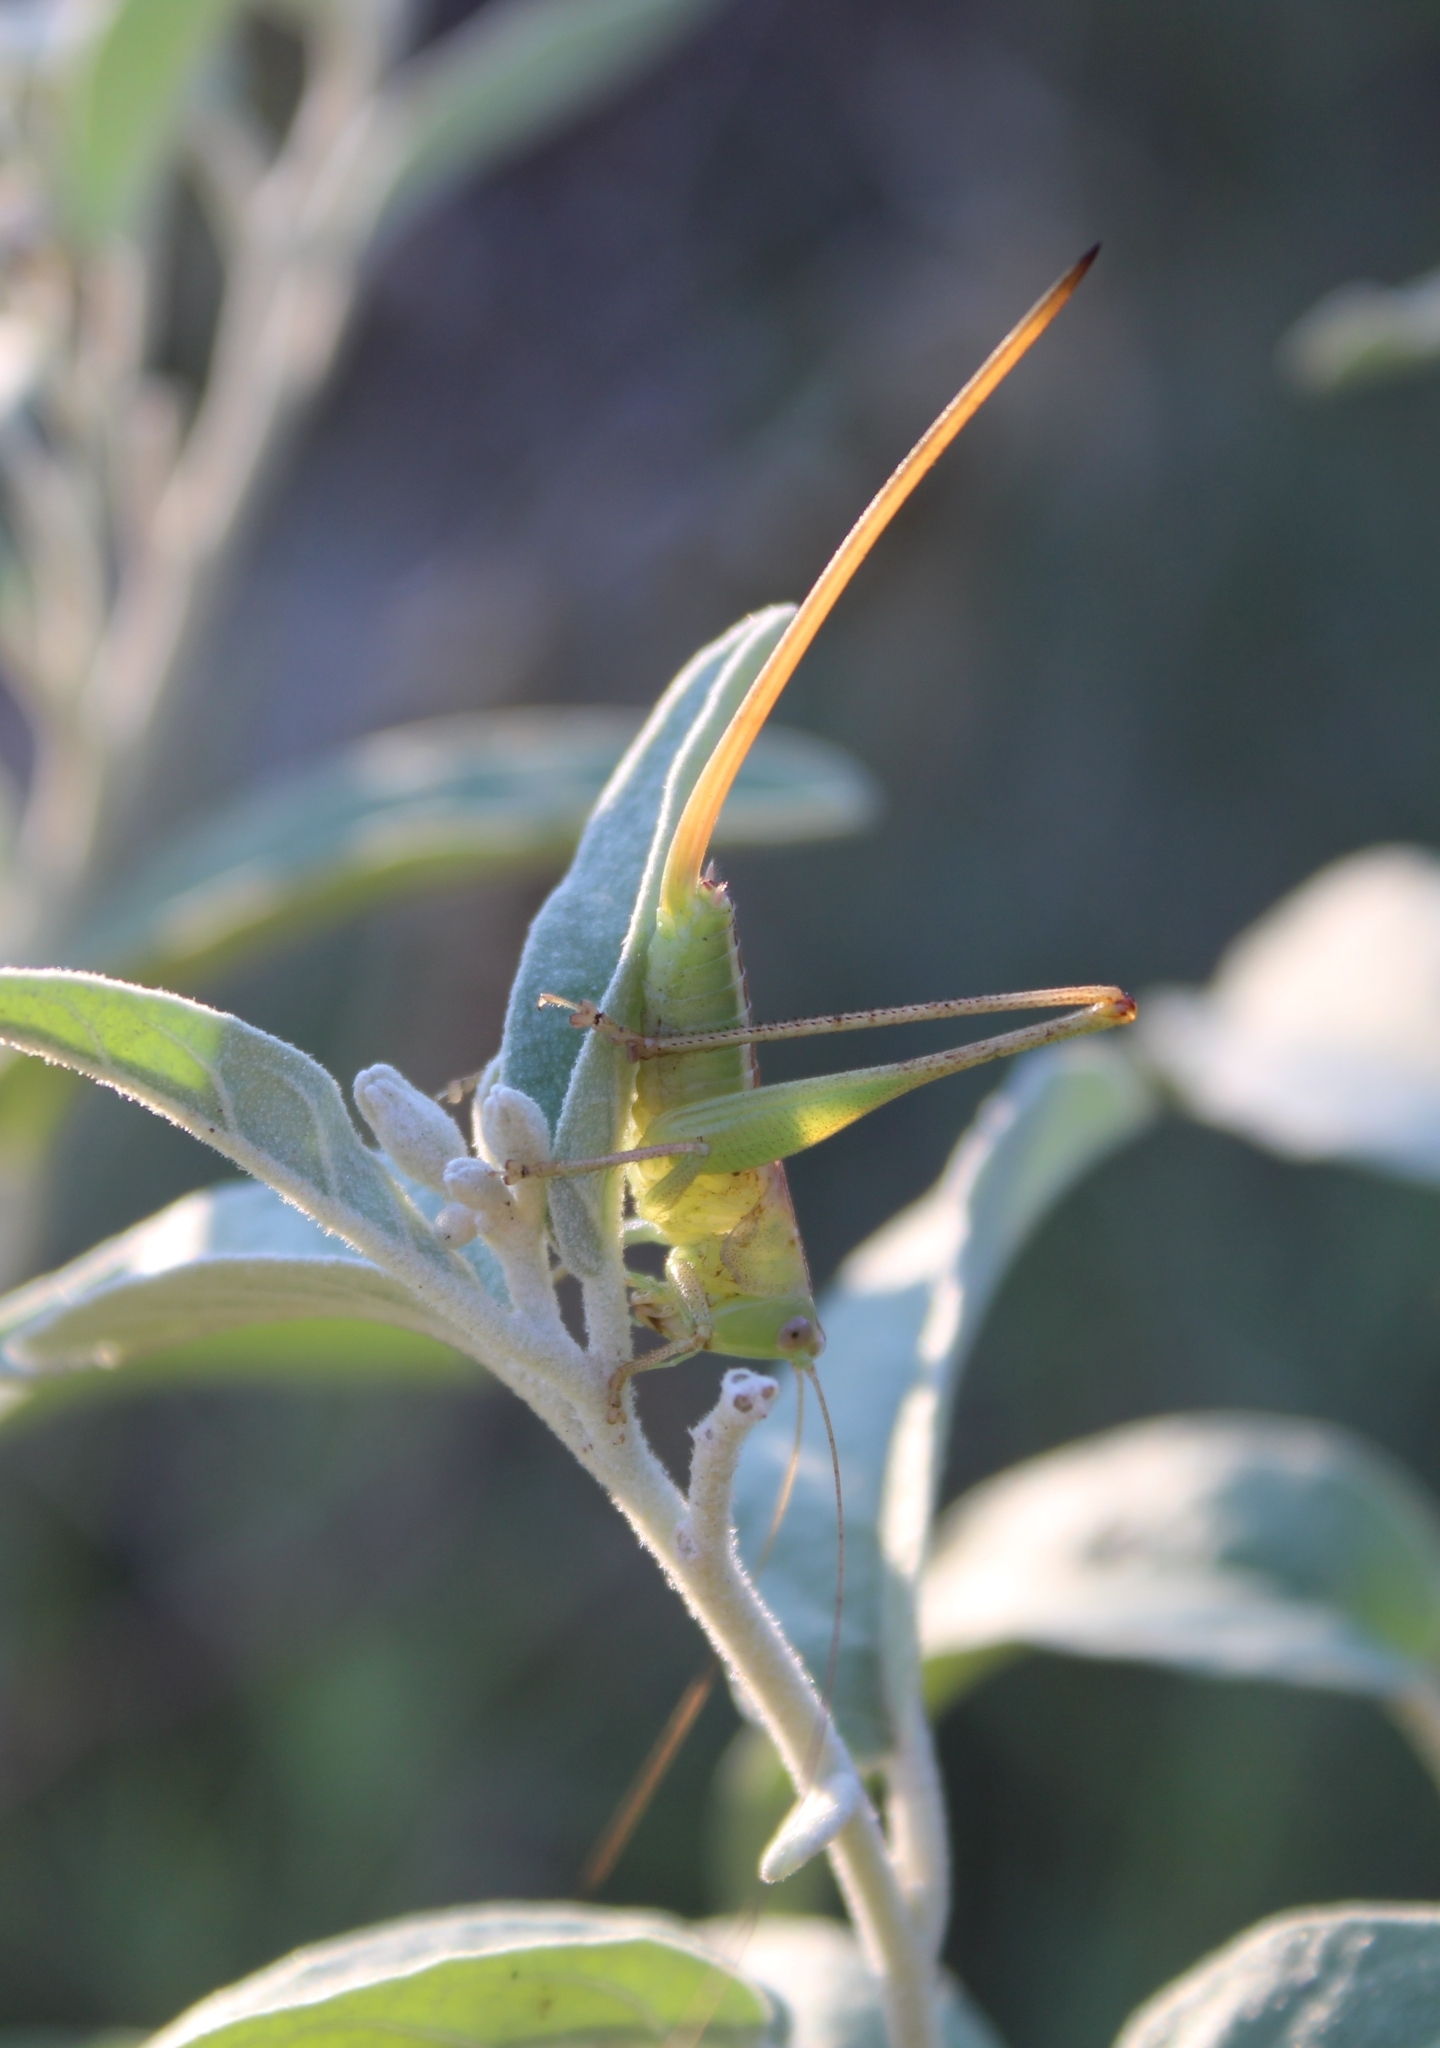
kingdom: Animalia
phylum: Arthropoda
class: Insecta
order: Orthoptera
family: Tettigoniidae
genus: Conocephalus
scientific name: Conocephalus strictus
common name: Straight-lanced katydid
